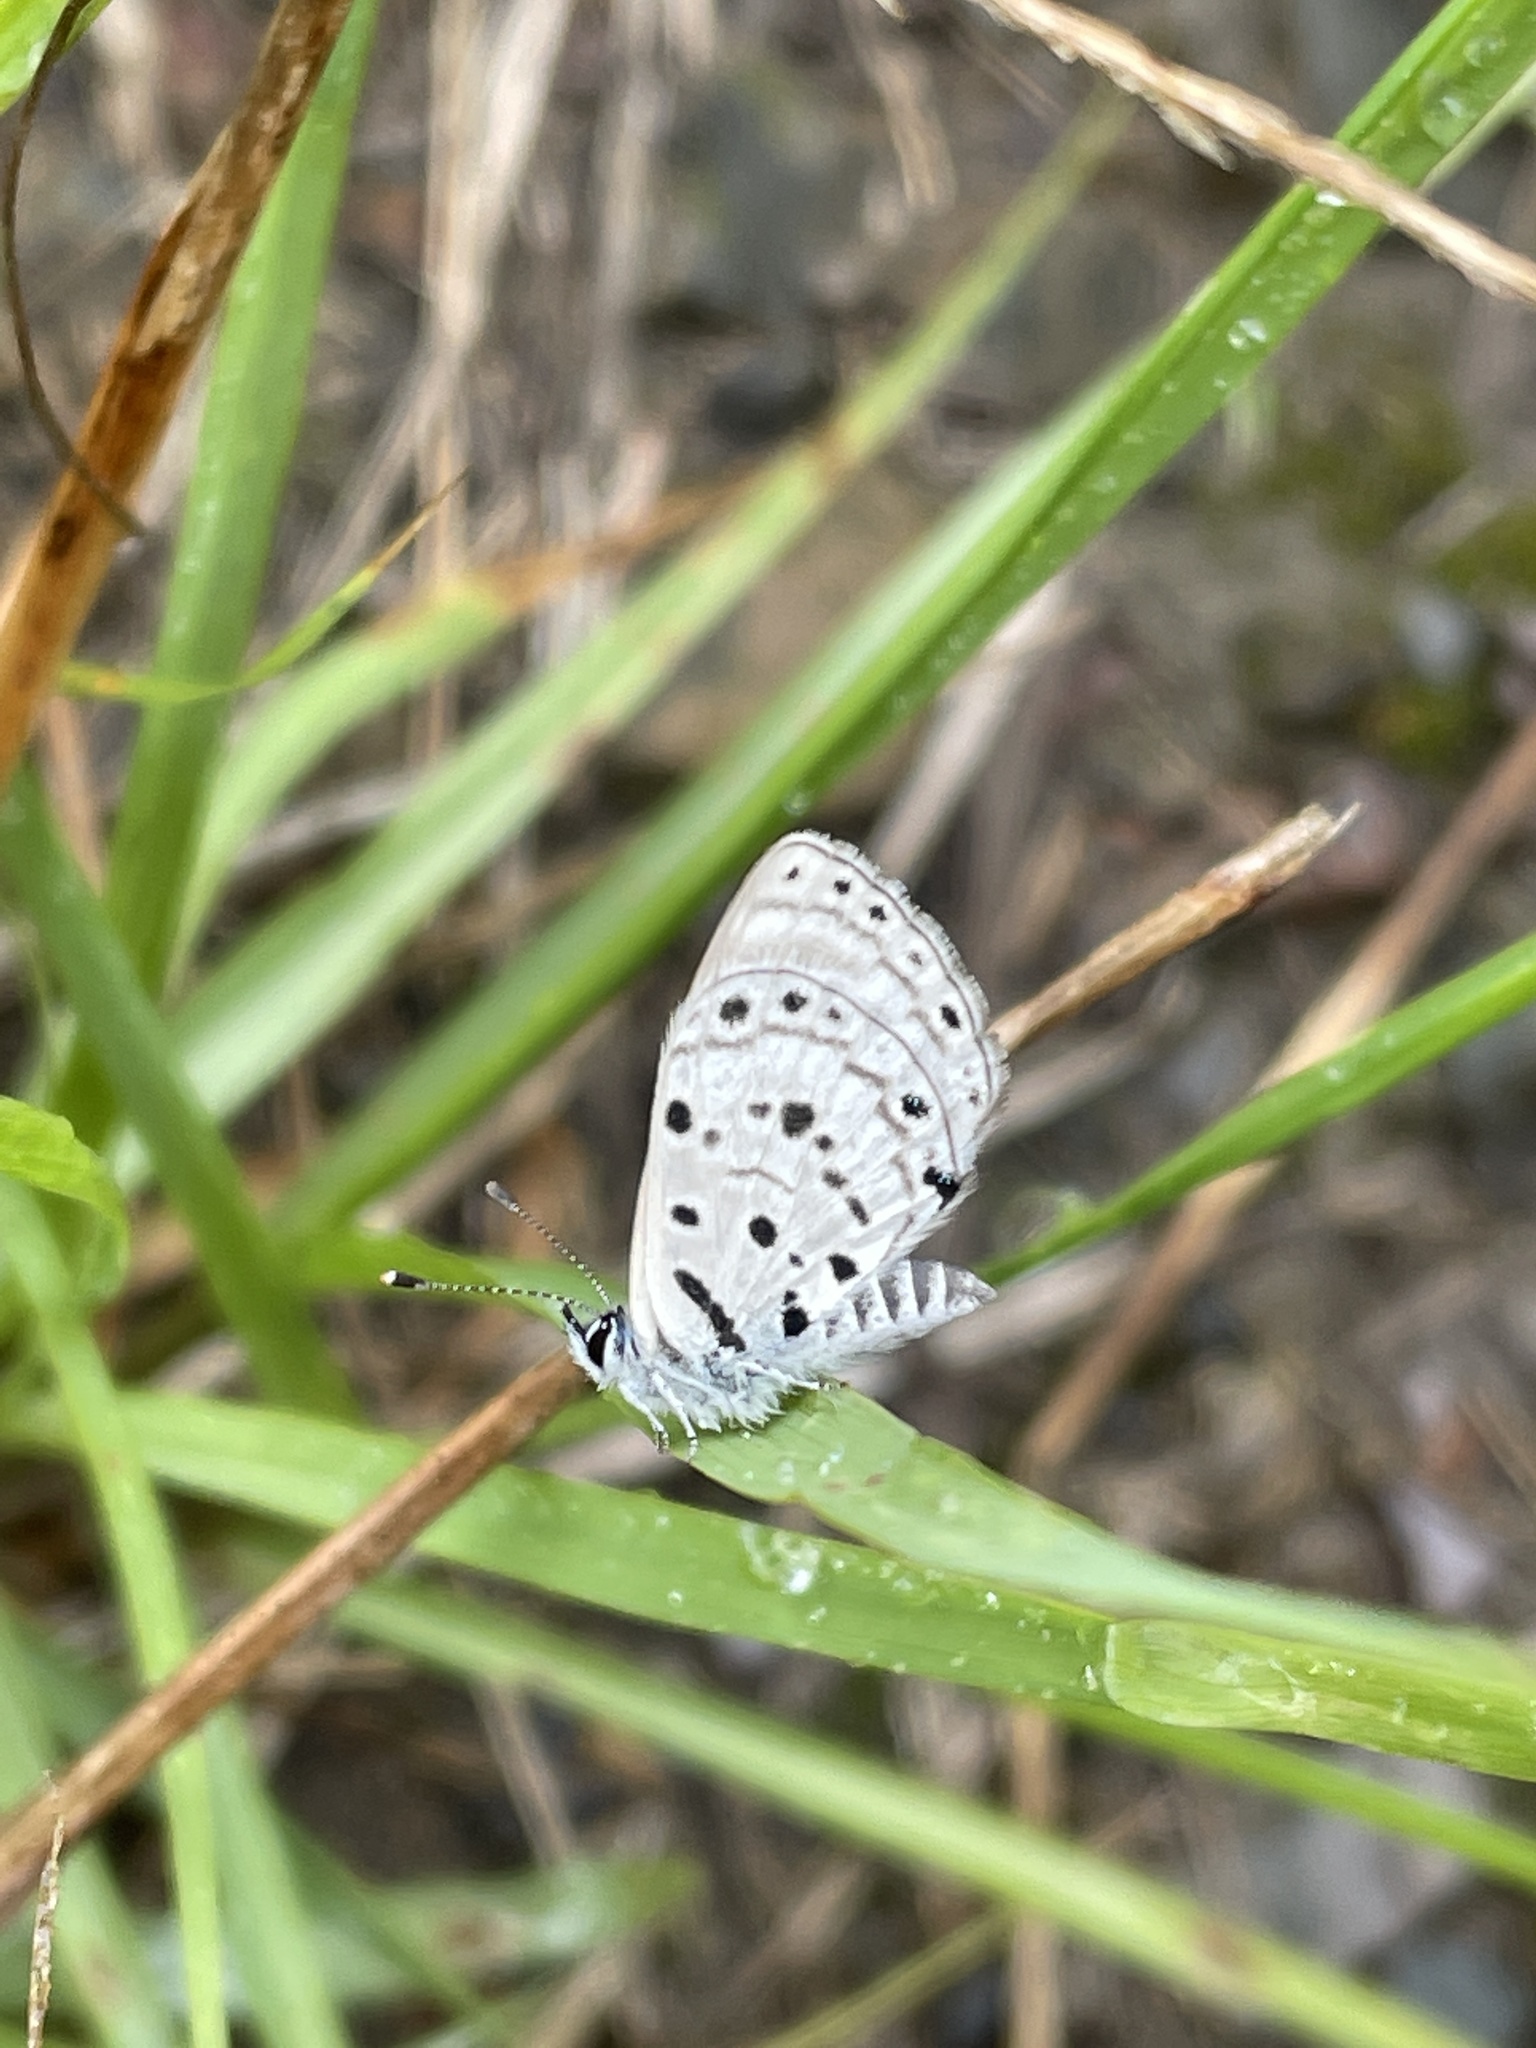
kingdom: Animalia
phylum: Arthropoda
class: Insecta
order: Lepidoptera
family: Lycaenidae
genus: Azanus
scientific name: Azanus moriqua
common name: Thorn-tree babul blue
